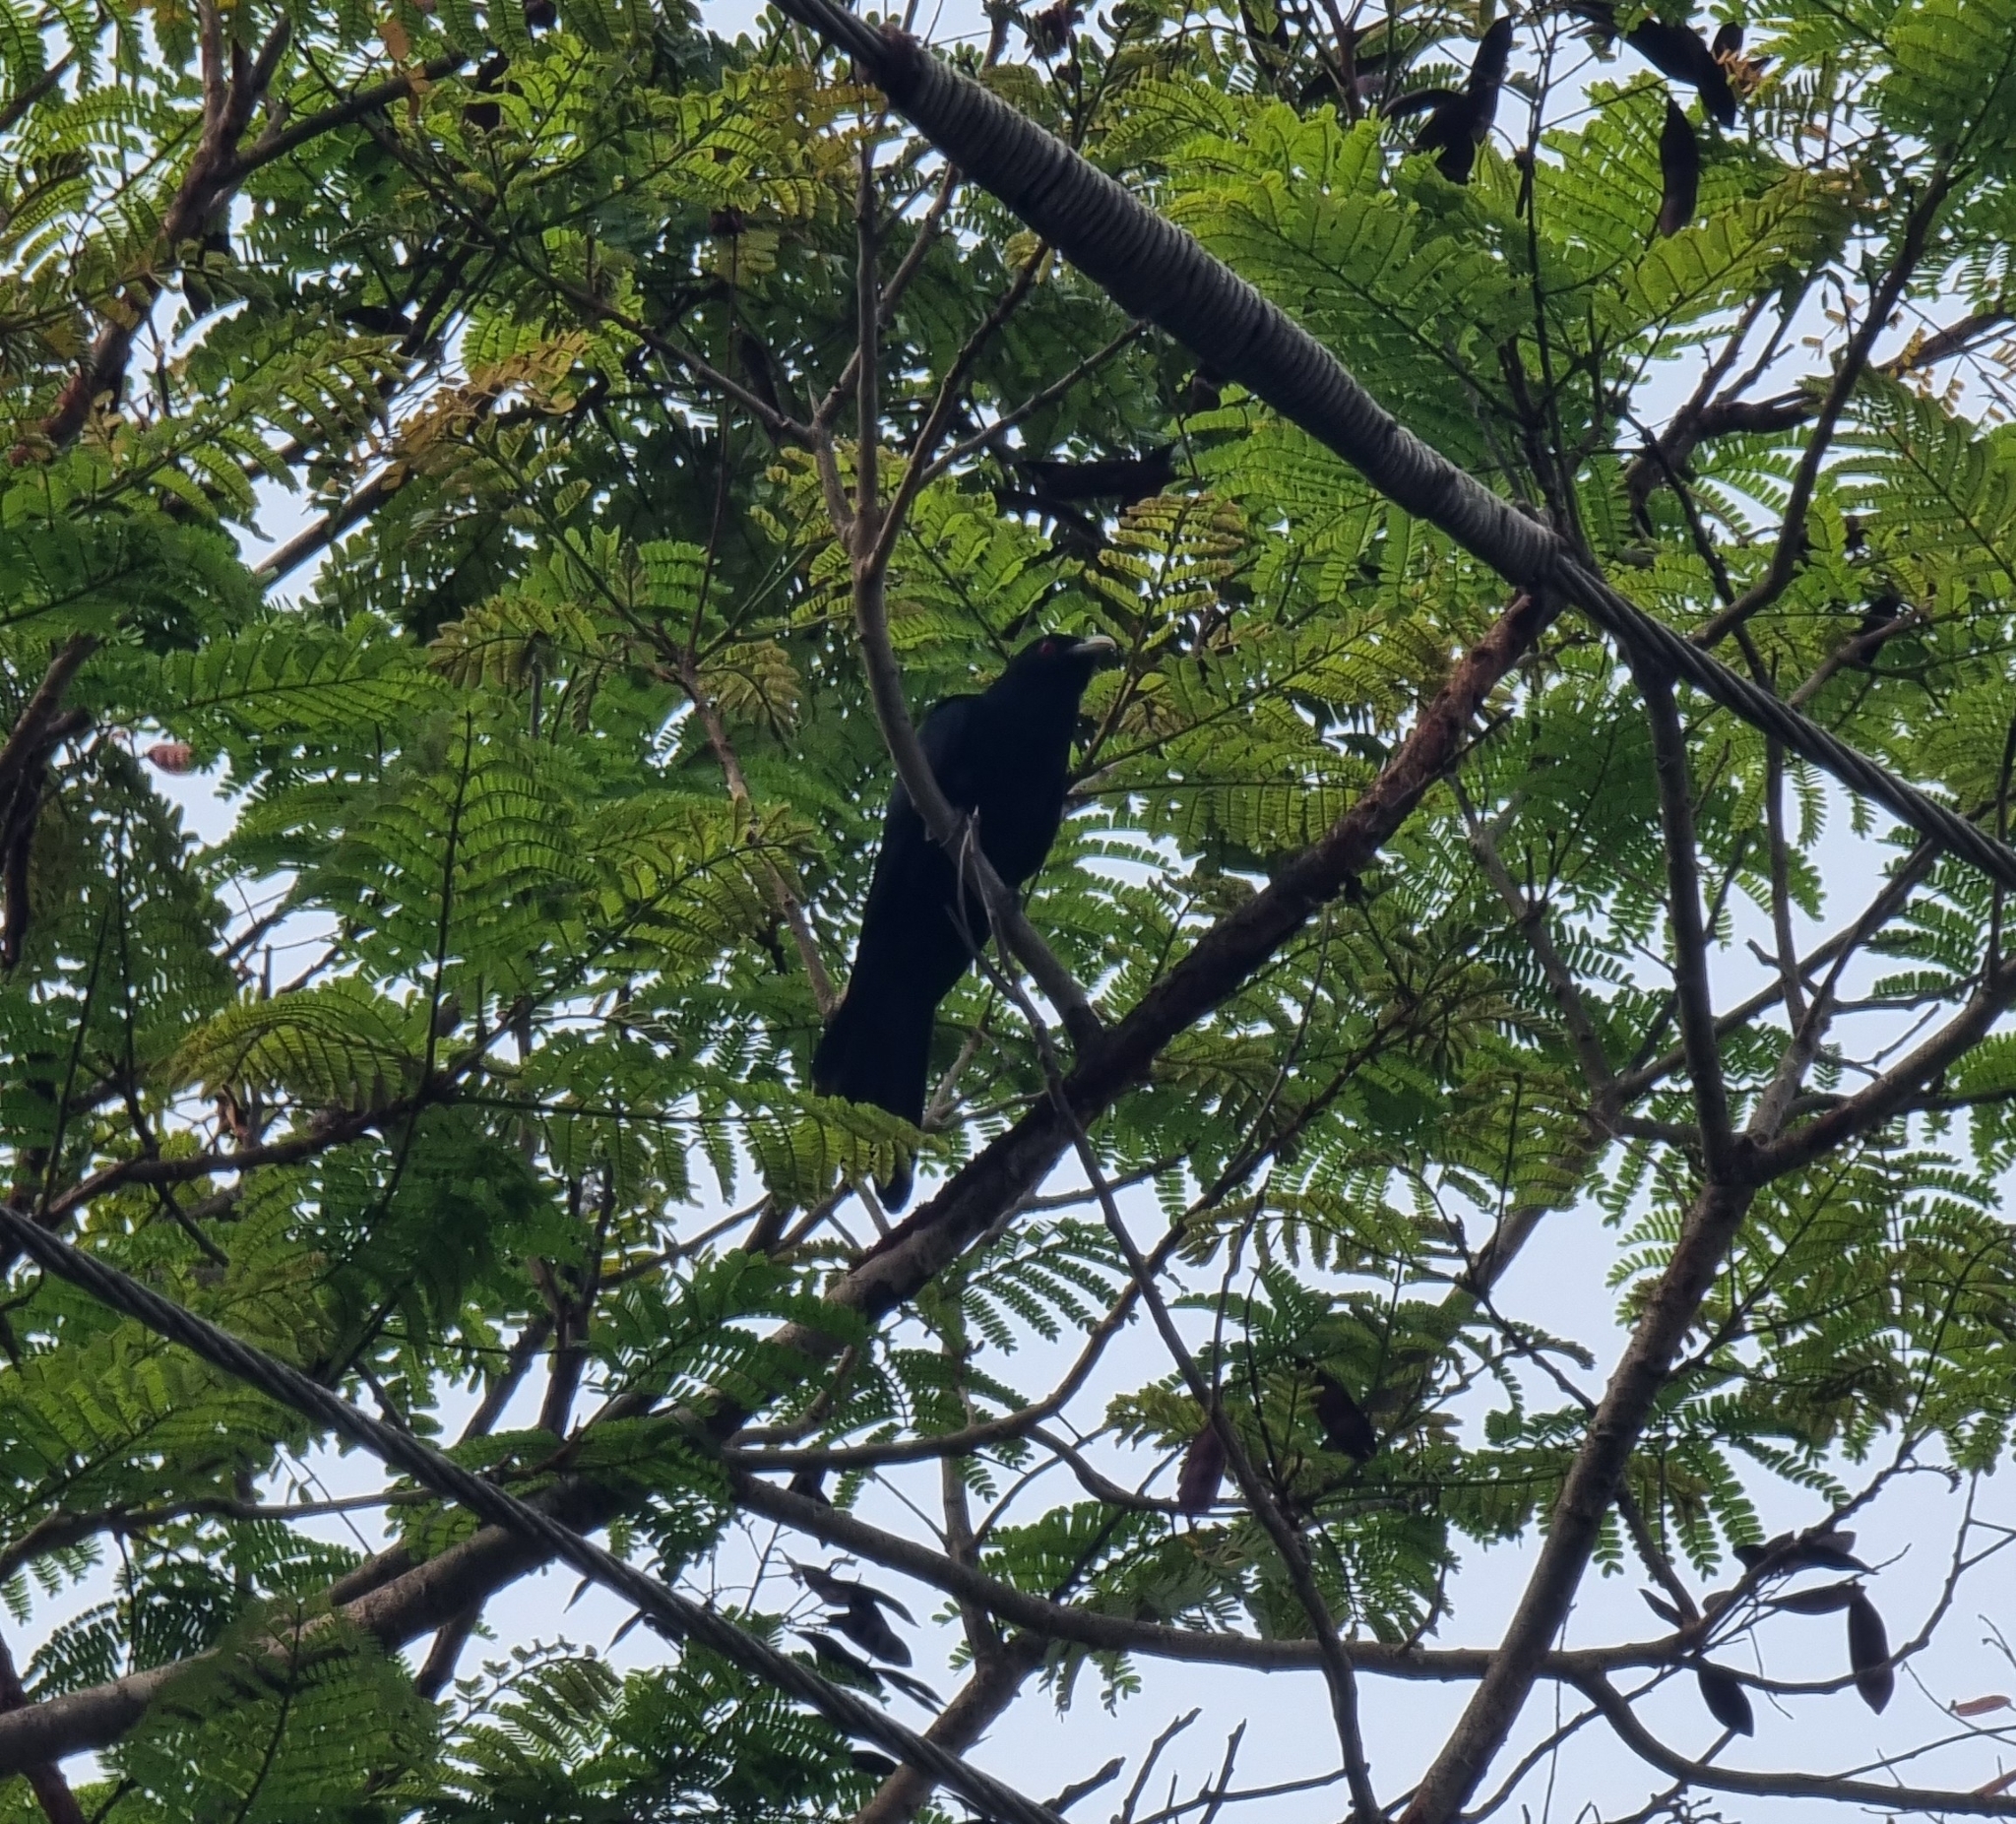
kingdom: Animalia
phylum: Chordata
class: Aves
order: Cuculiformes
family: Cuculidae
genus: Eudynamys
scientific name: Eudynamys scolopaceus
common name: Asian koel
